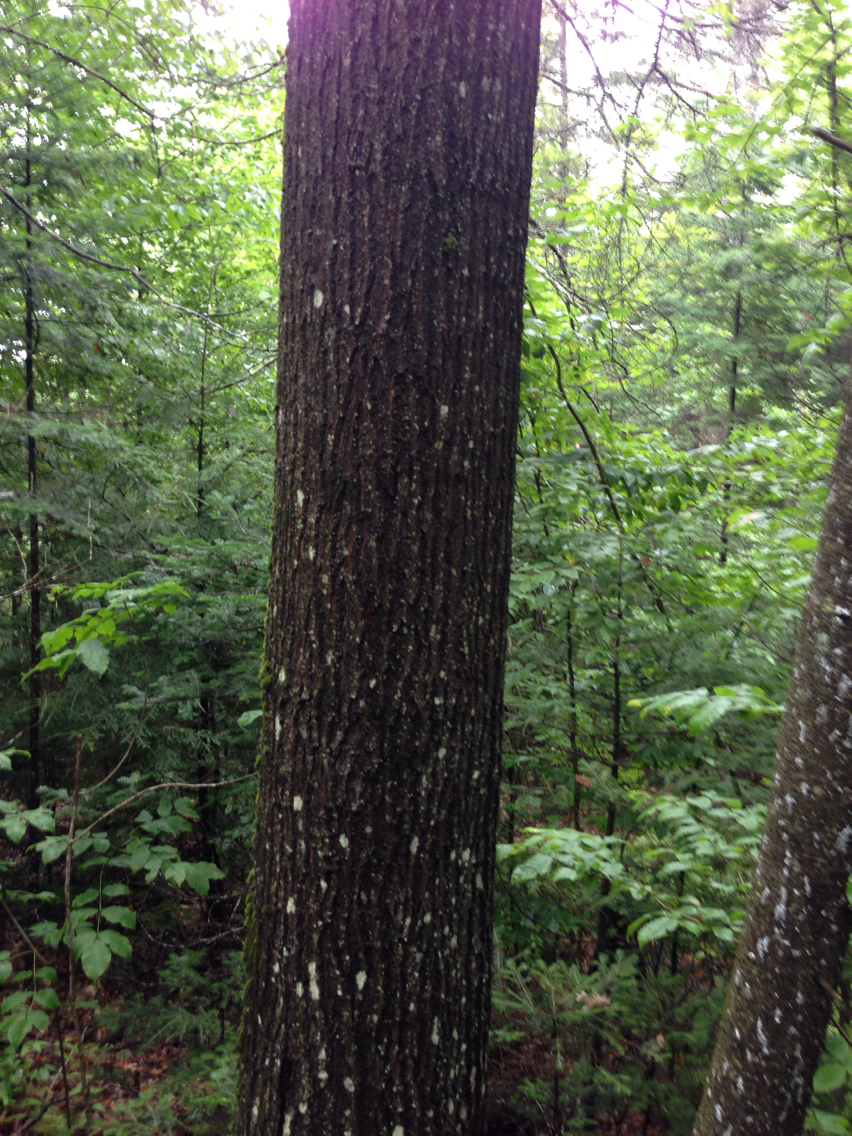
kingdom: Plantae
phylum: Tracheophyta
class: Magnoliopsida
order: Fagales
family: Fagaceae
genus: Quercus
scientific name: Quercus rubra
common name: Red oak
